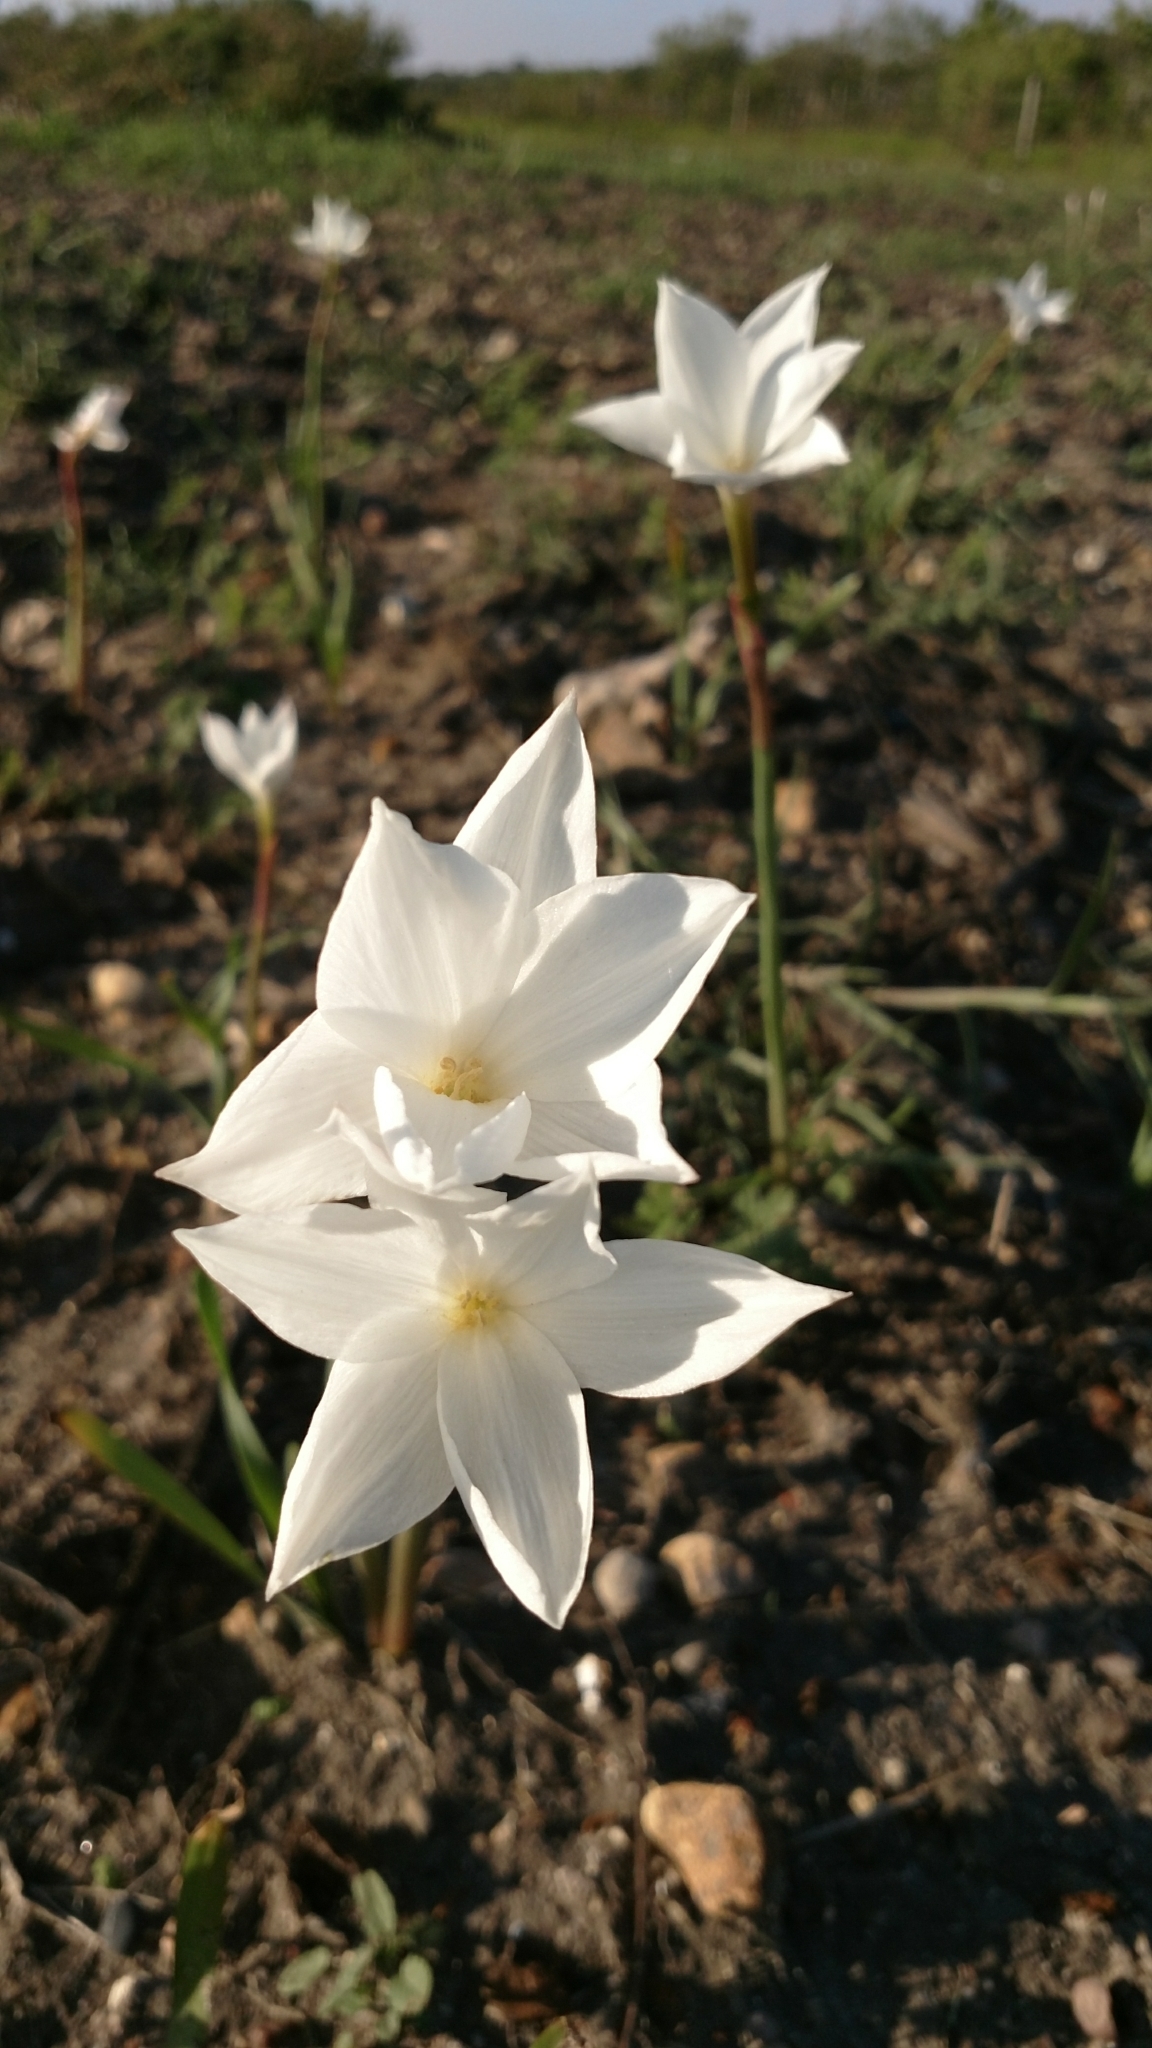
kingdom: Plantae
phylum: Tracheophyta
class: Liliopsida
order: Asparagales
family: Amaryllidaceae
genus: Zephyranthes
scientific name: Zephyranthes drummondii
